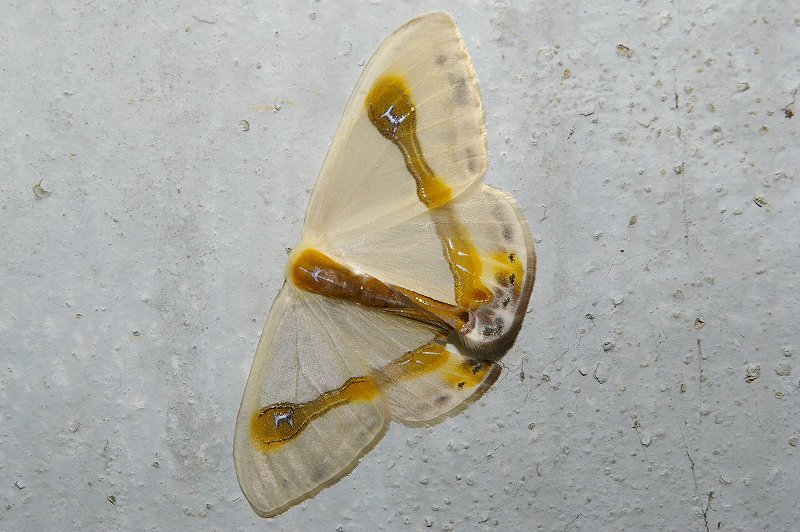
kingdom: Animalia
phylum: Arthropoda
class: Insecta
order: Lepidoptera
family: Drepanidae
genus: Macrocilix
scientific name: Macrocilix mysticata
